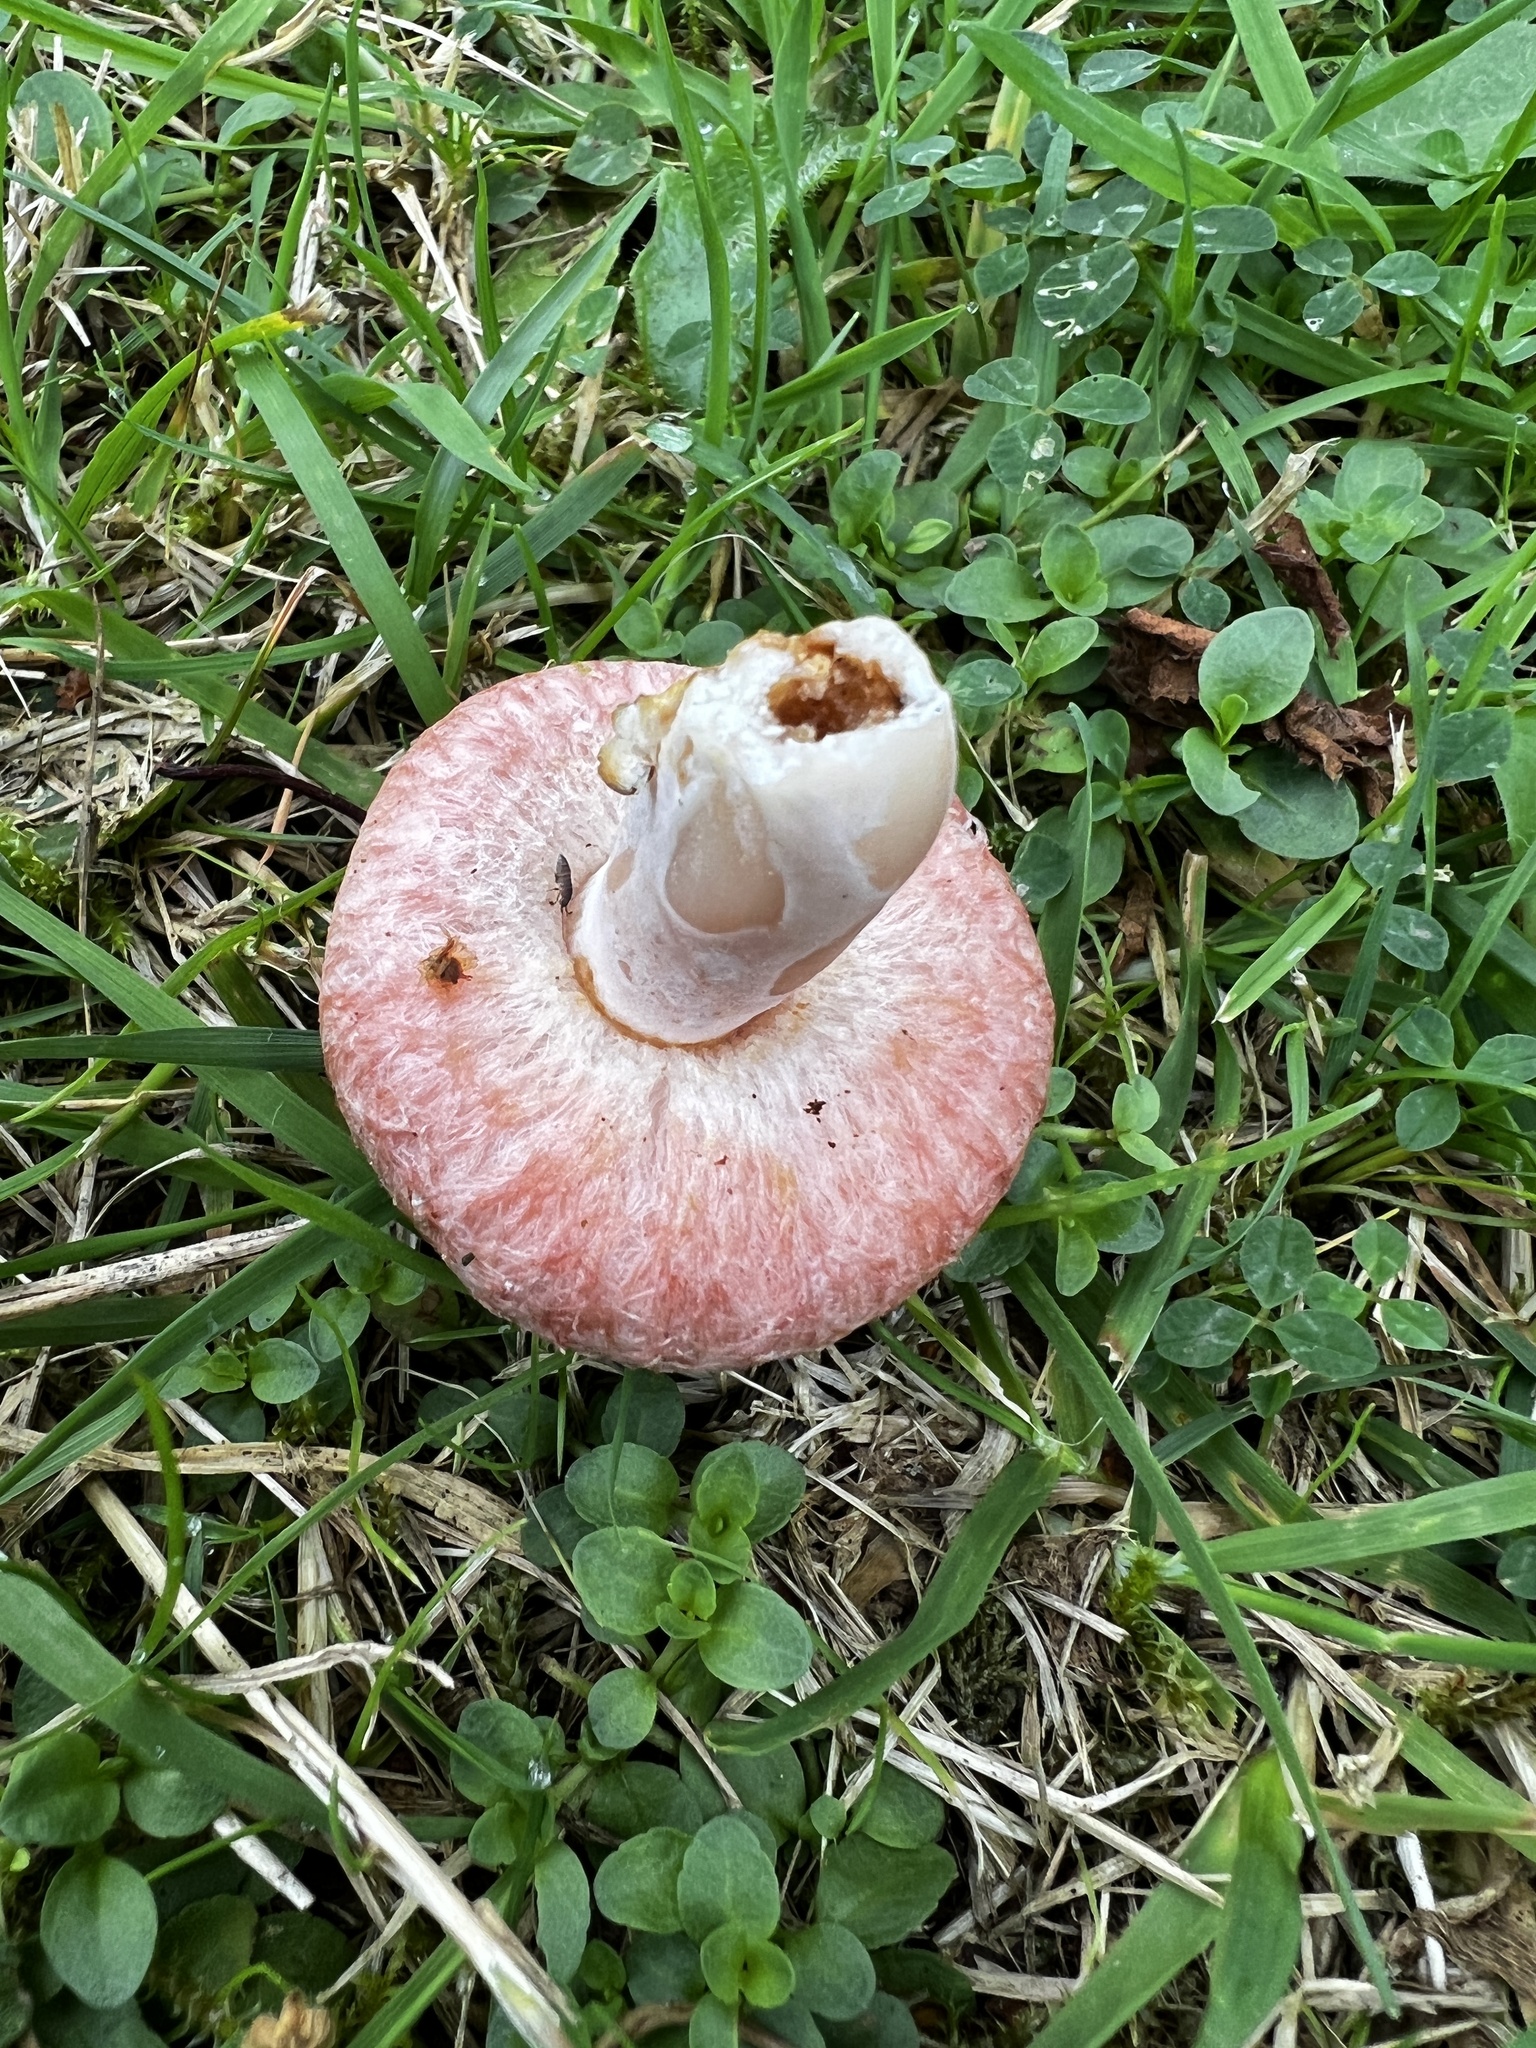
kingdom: Fungi
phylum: Basidiomycota
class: Agaricomycetes
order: Russulales
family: Russulaceae
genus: Lactarius
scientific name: Lactarius torminosus
